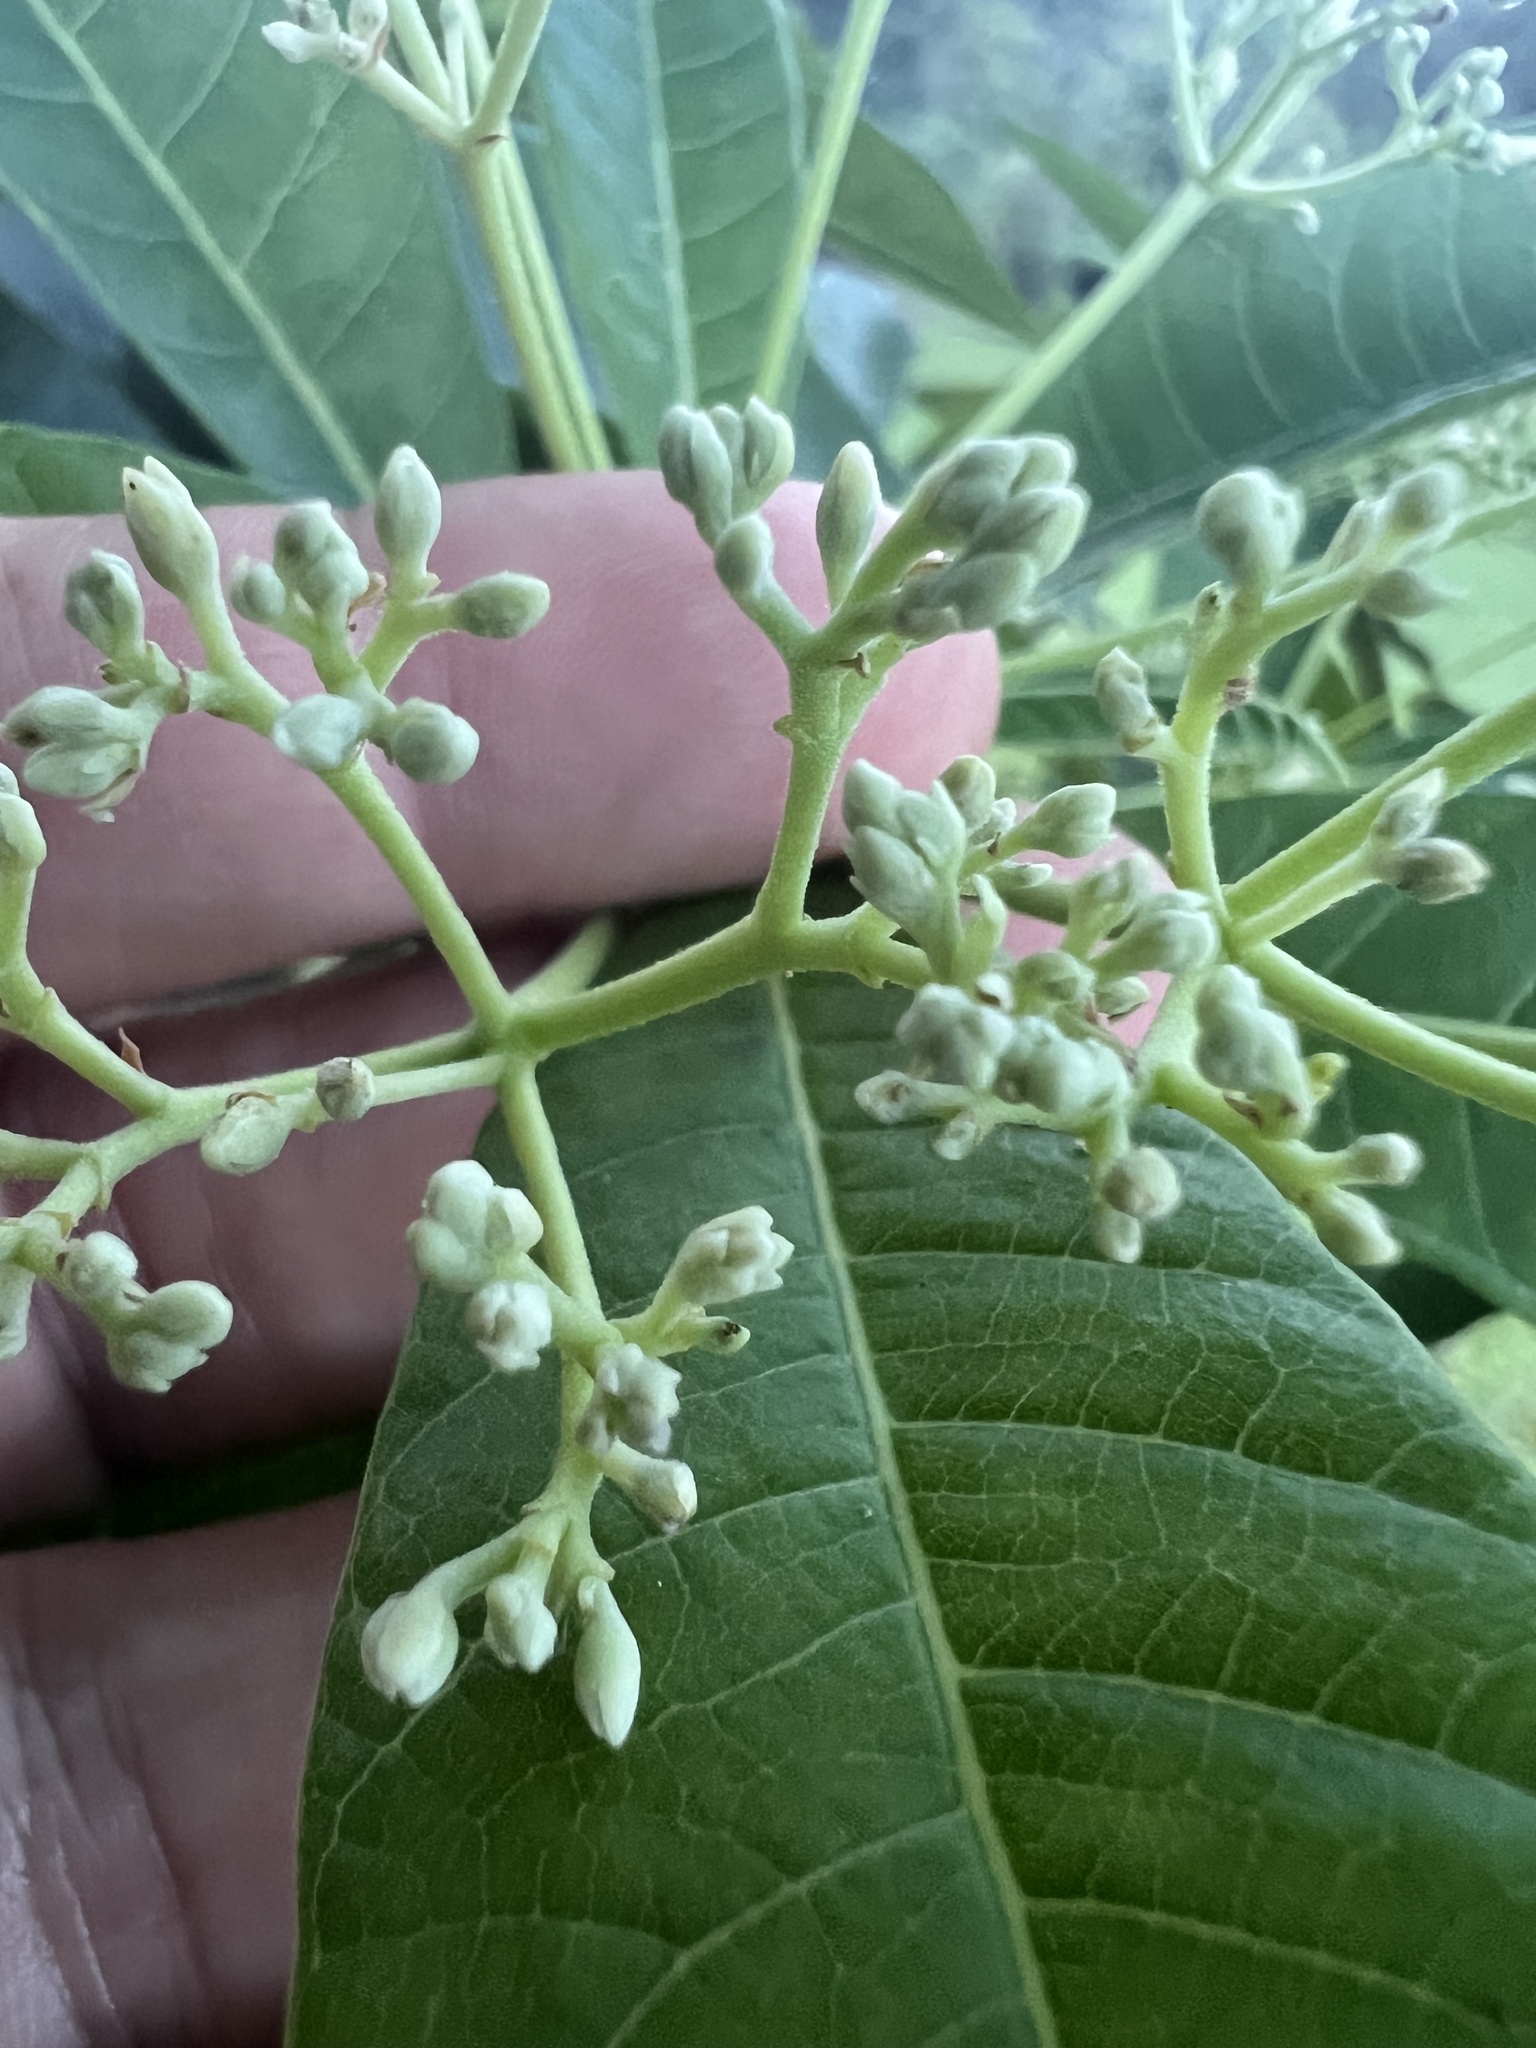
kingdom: Plantae
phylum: Tracheophyta
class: Magnoliopsida
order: Gentianales
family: Apocynaceae
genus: Alstonia
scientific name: Alstonia muelleriana
